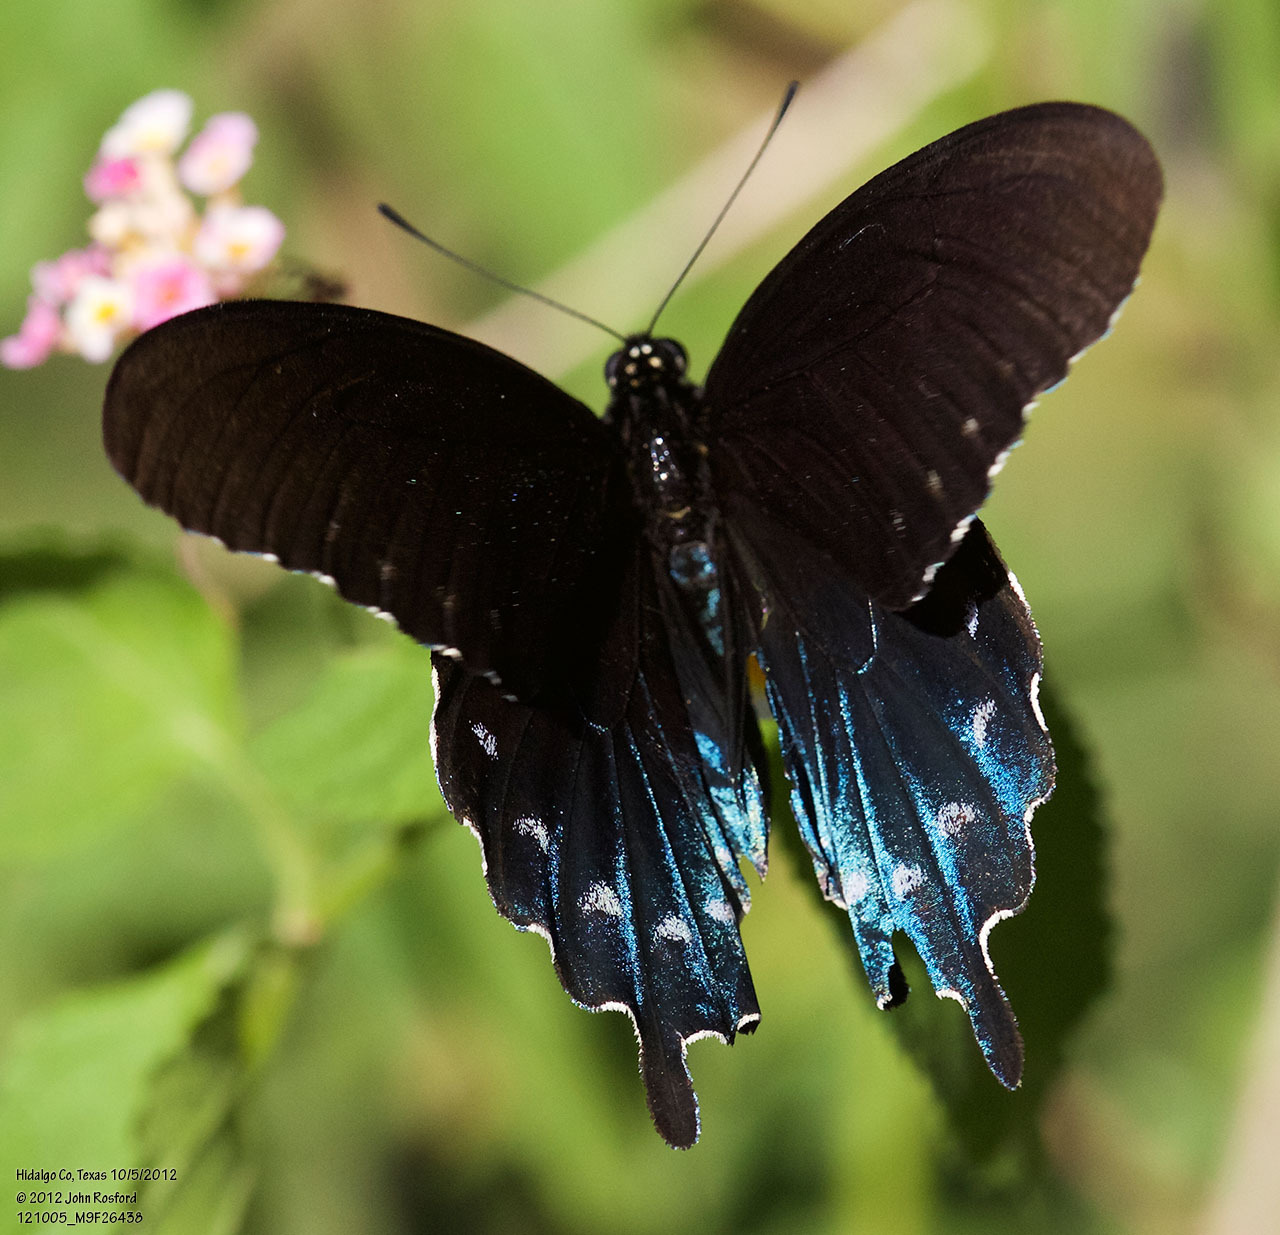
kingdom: Animalia
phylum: Arthropoda
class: Insecta
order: Lepidoptera
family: Papilionidae
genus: Battus
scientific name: Battus philenor
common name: Pipevine swallowtail
